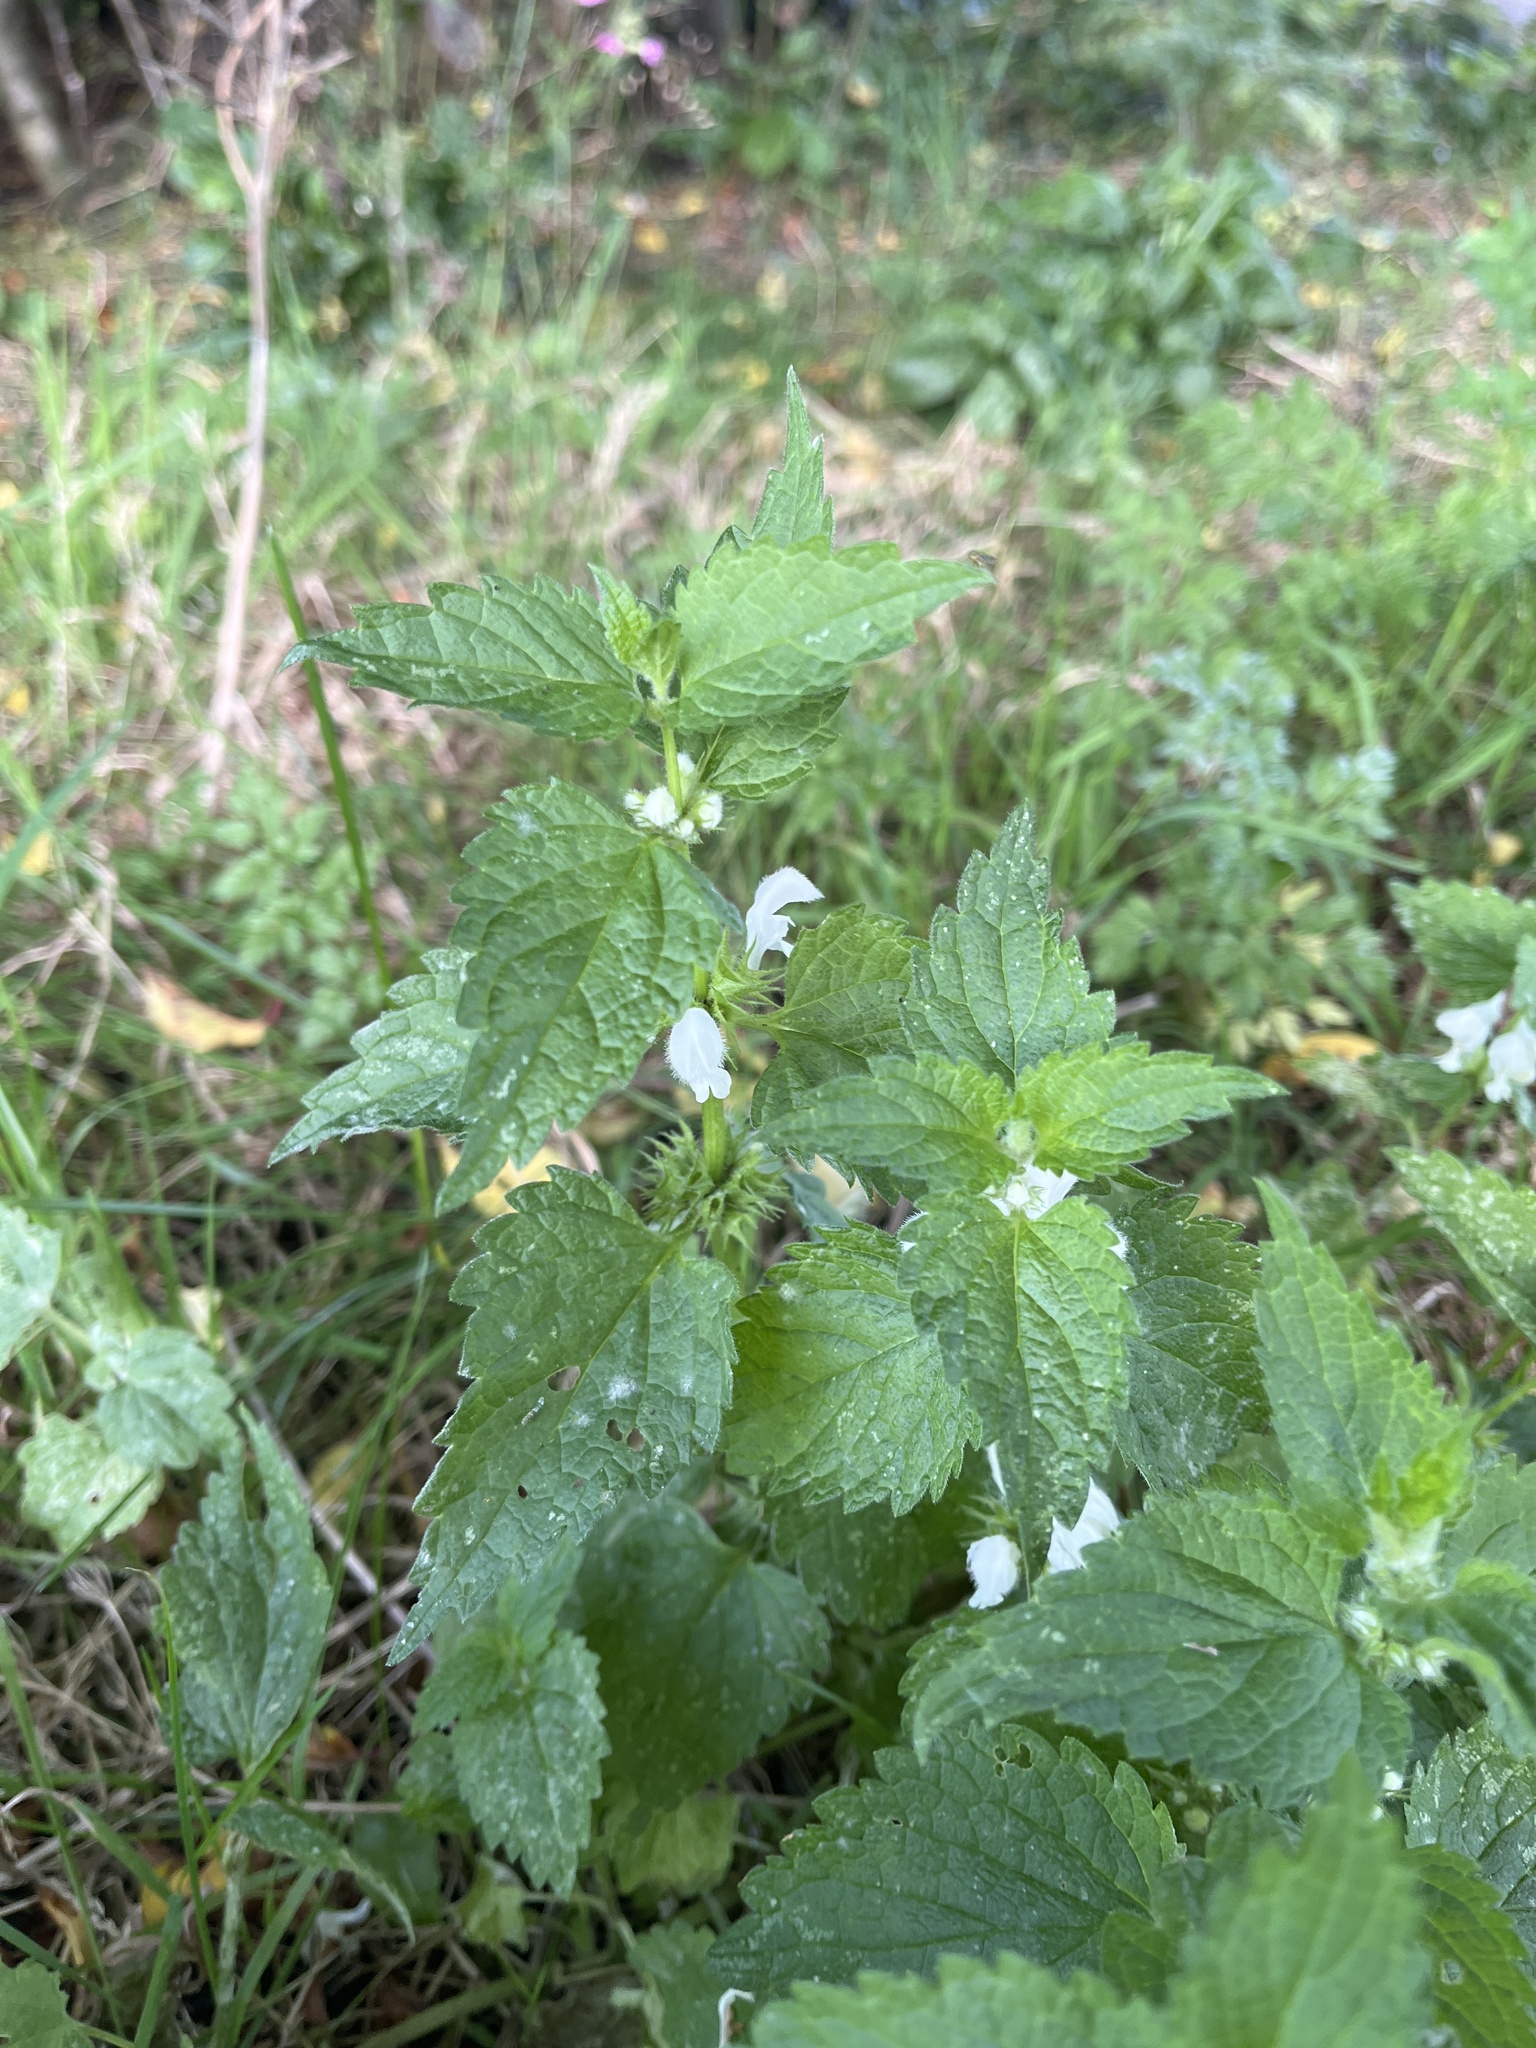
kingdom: Plantae
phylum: Tracheophyta
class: Magnoliopsida
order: Lamiales
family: Lamiaceae
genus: Lamium
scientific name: Lamium album
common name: White dead-nettle
